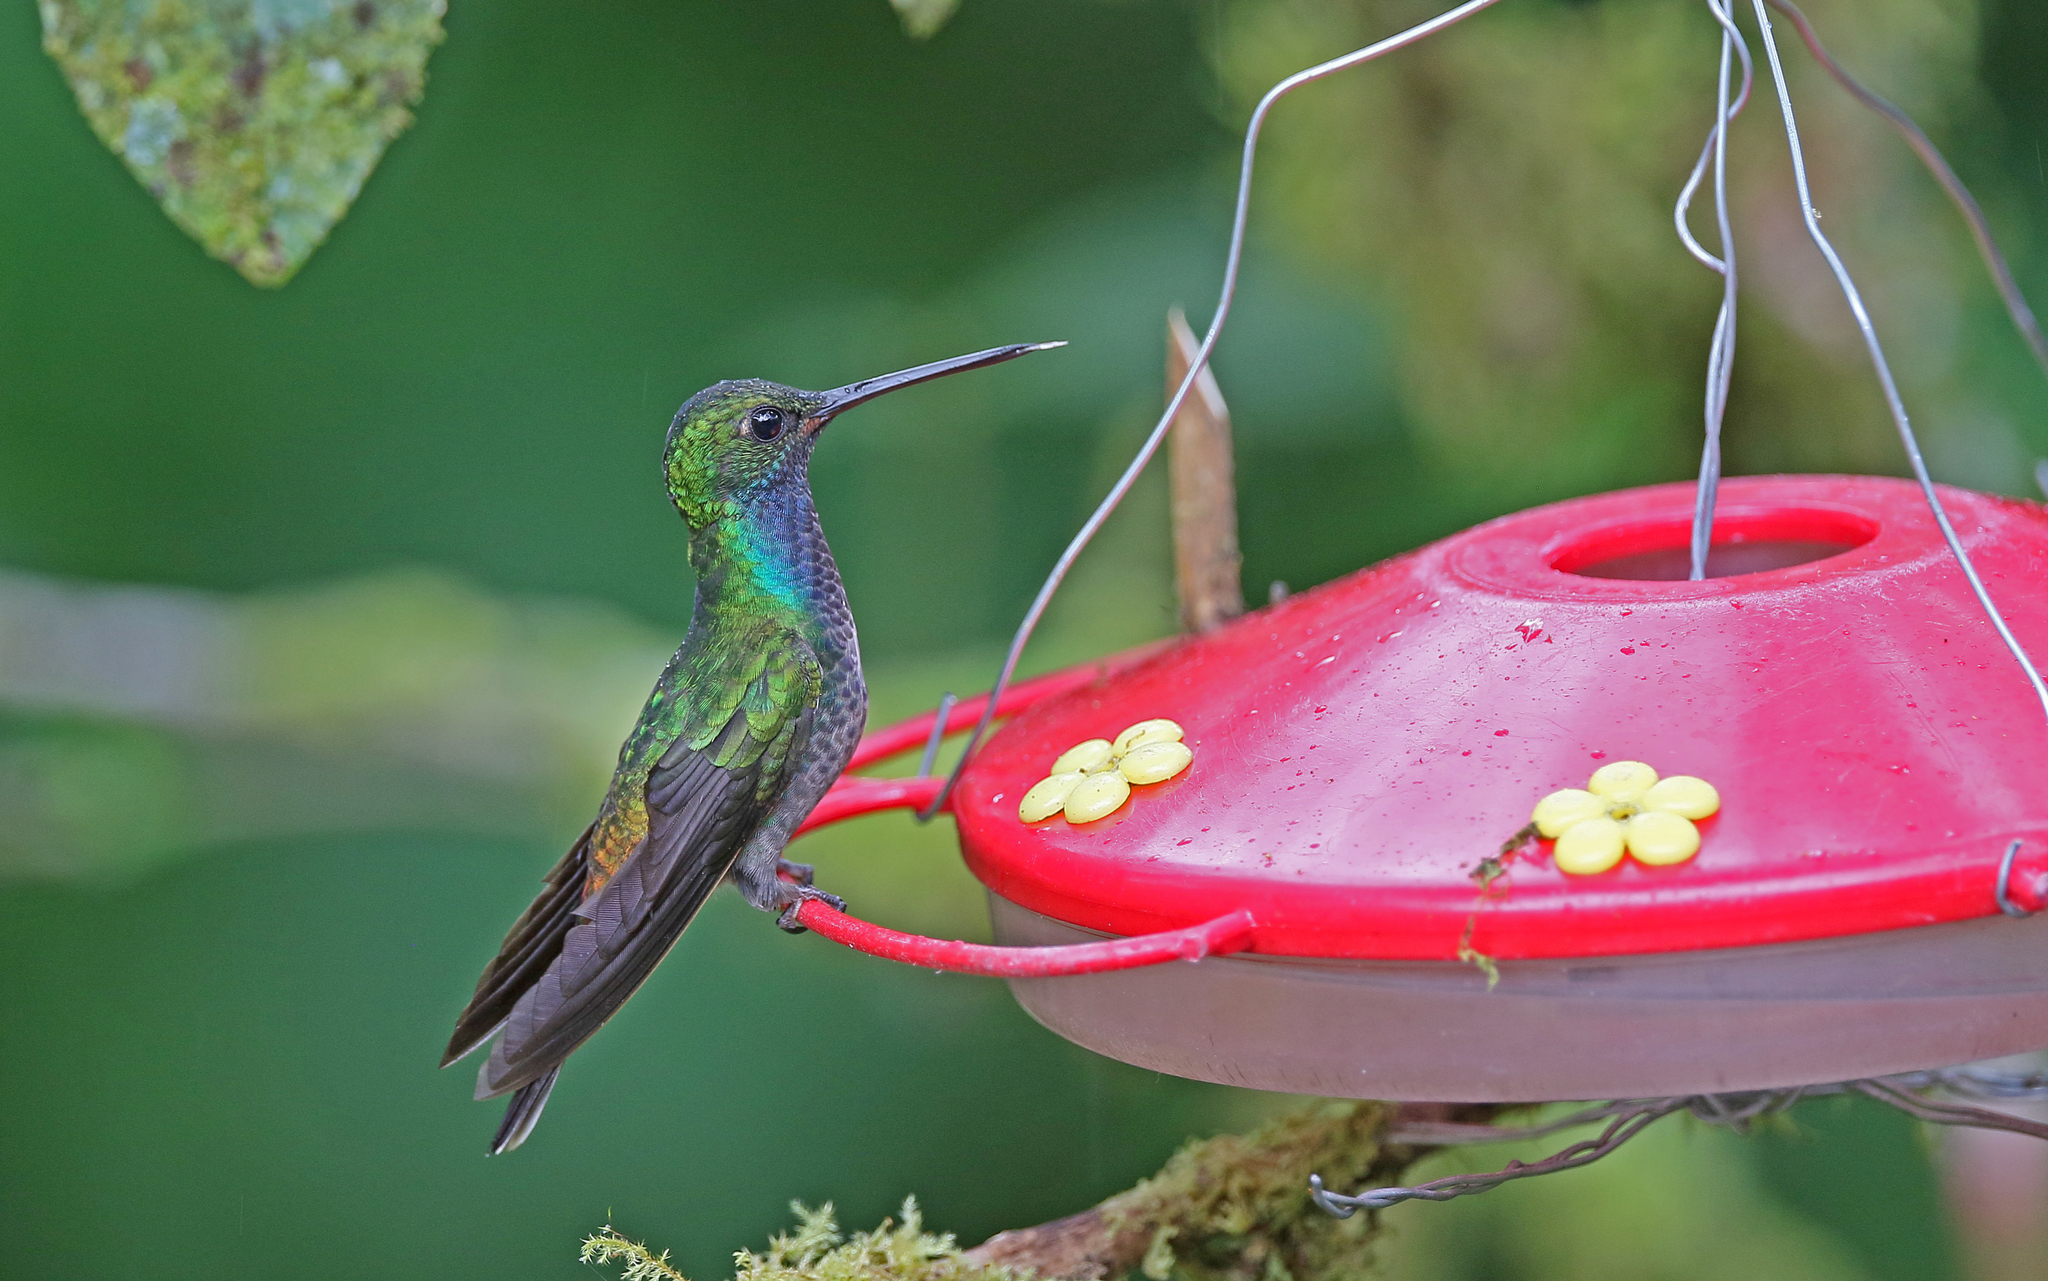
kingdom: Animalia
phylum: Chordata
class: Aves
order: Apodiformes
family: Trochilidae
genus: Chrysuronia
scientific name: Chrysuronia oenone
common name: Golden-tailed sapphire
